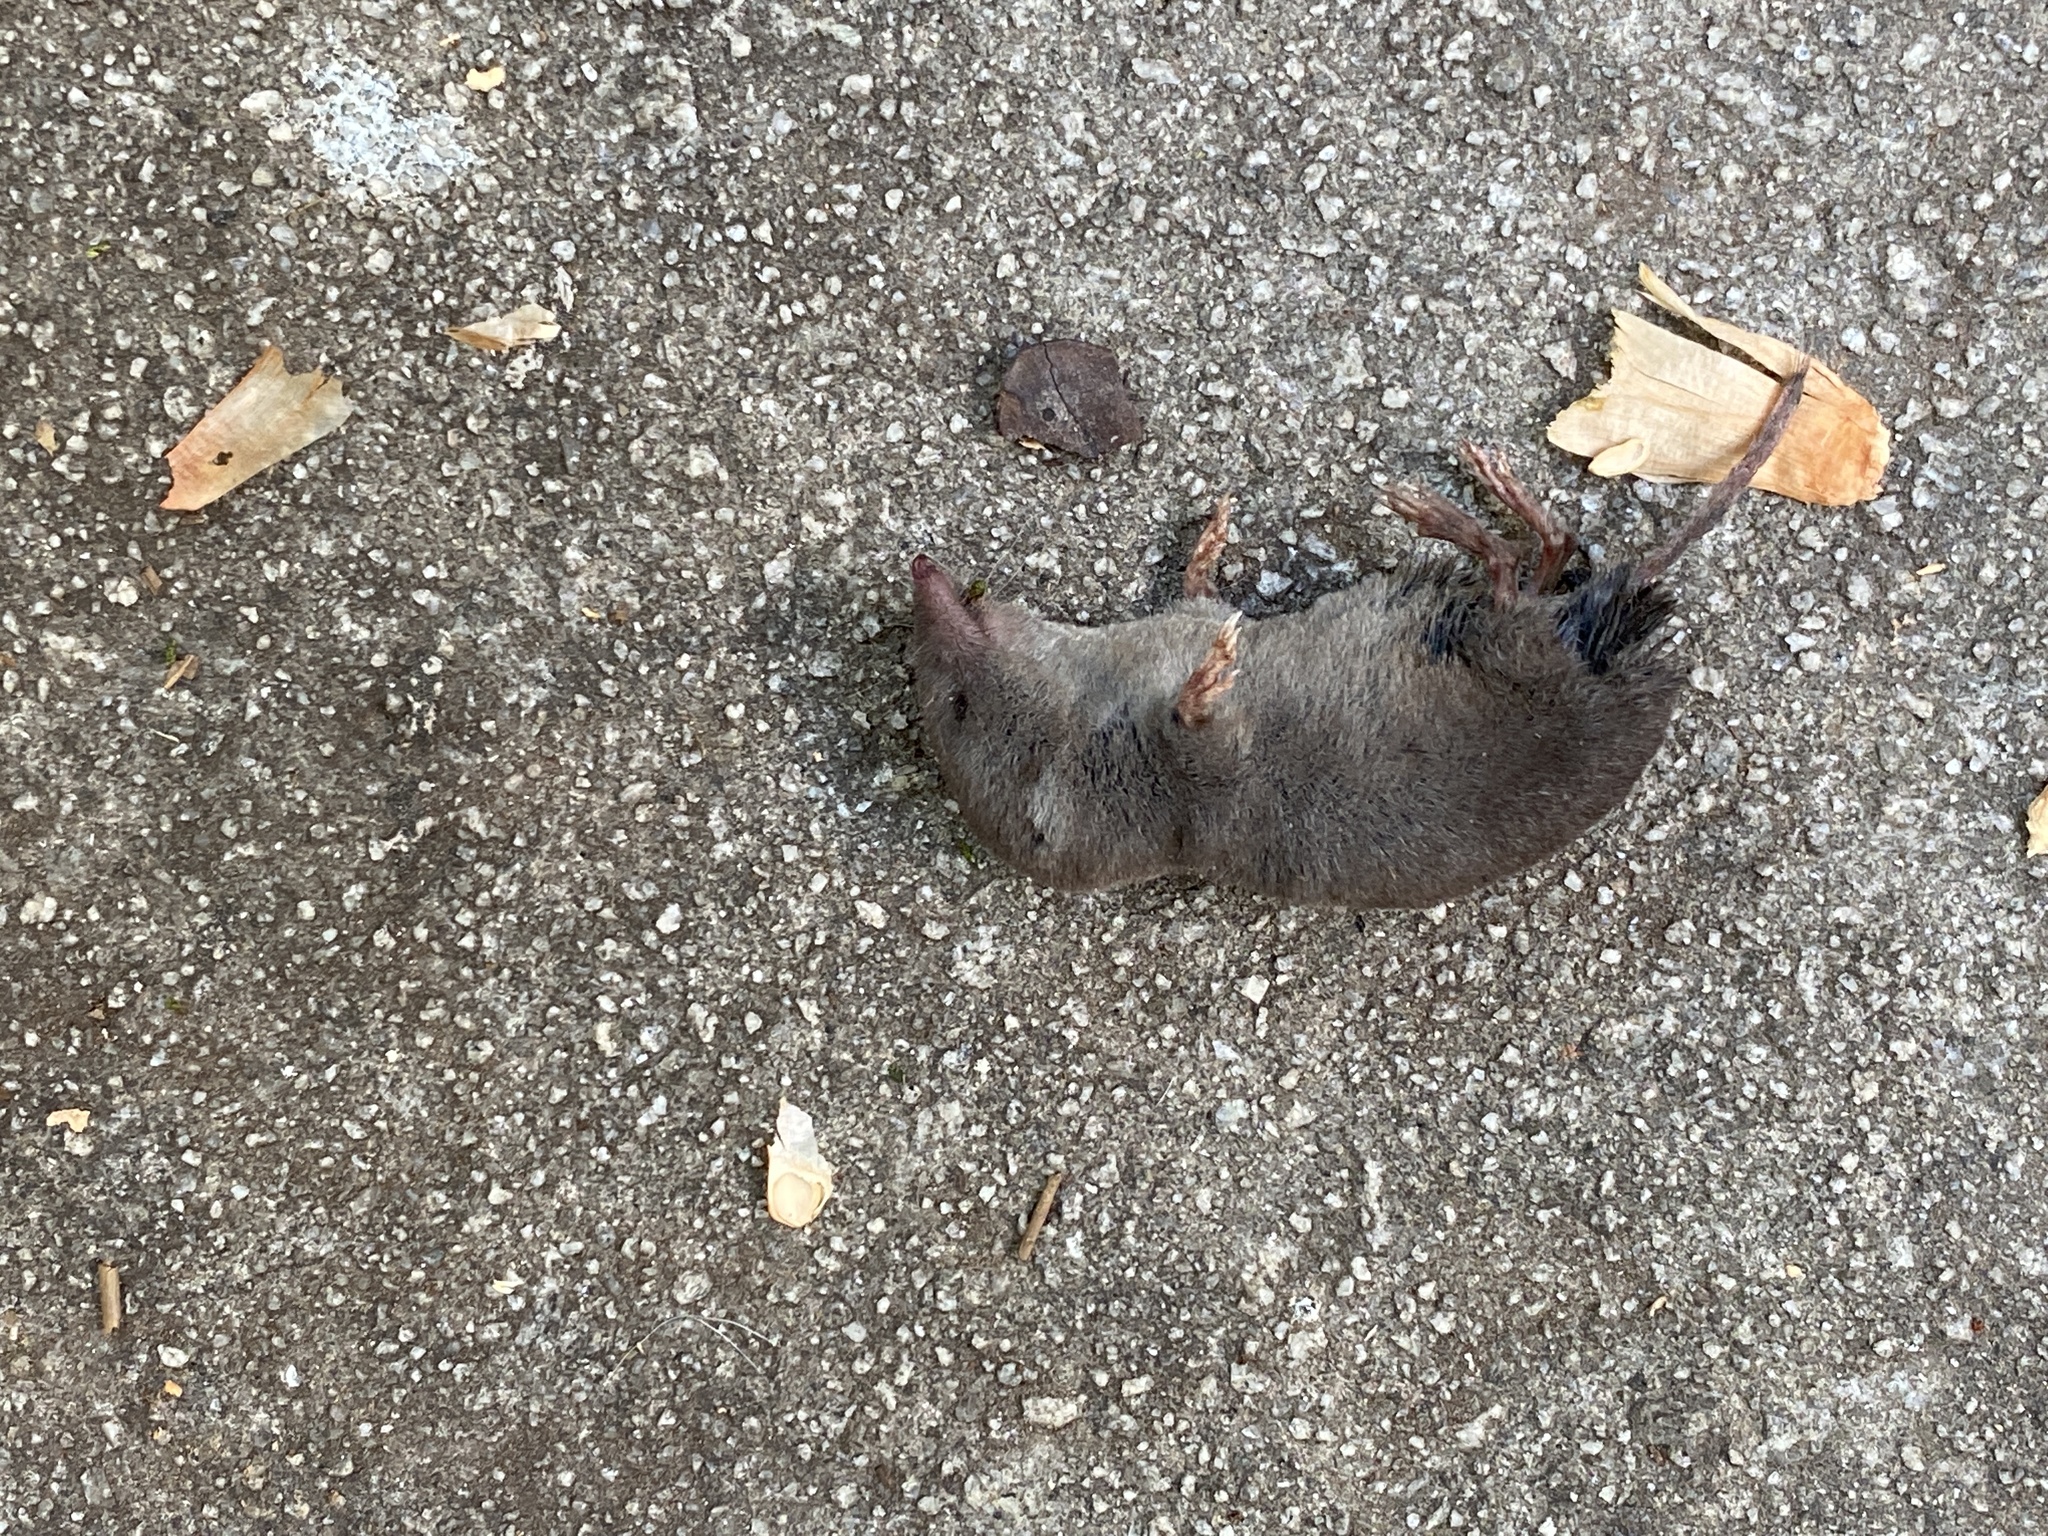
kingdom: Animalia
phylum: Chordata
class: Mammalia
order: Soricomorpha
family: Soricidae
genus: Cryptotis
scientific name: Cryptotis parva
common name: North american least shrew
